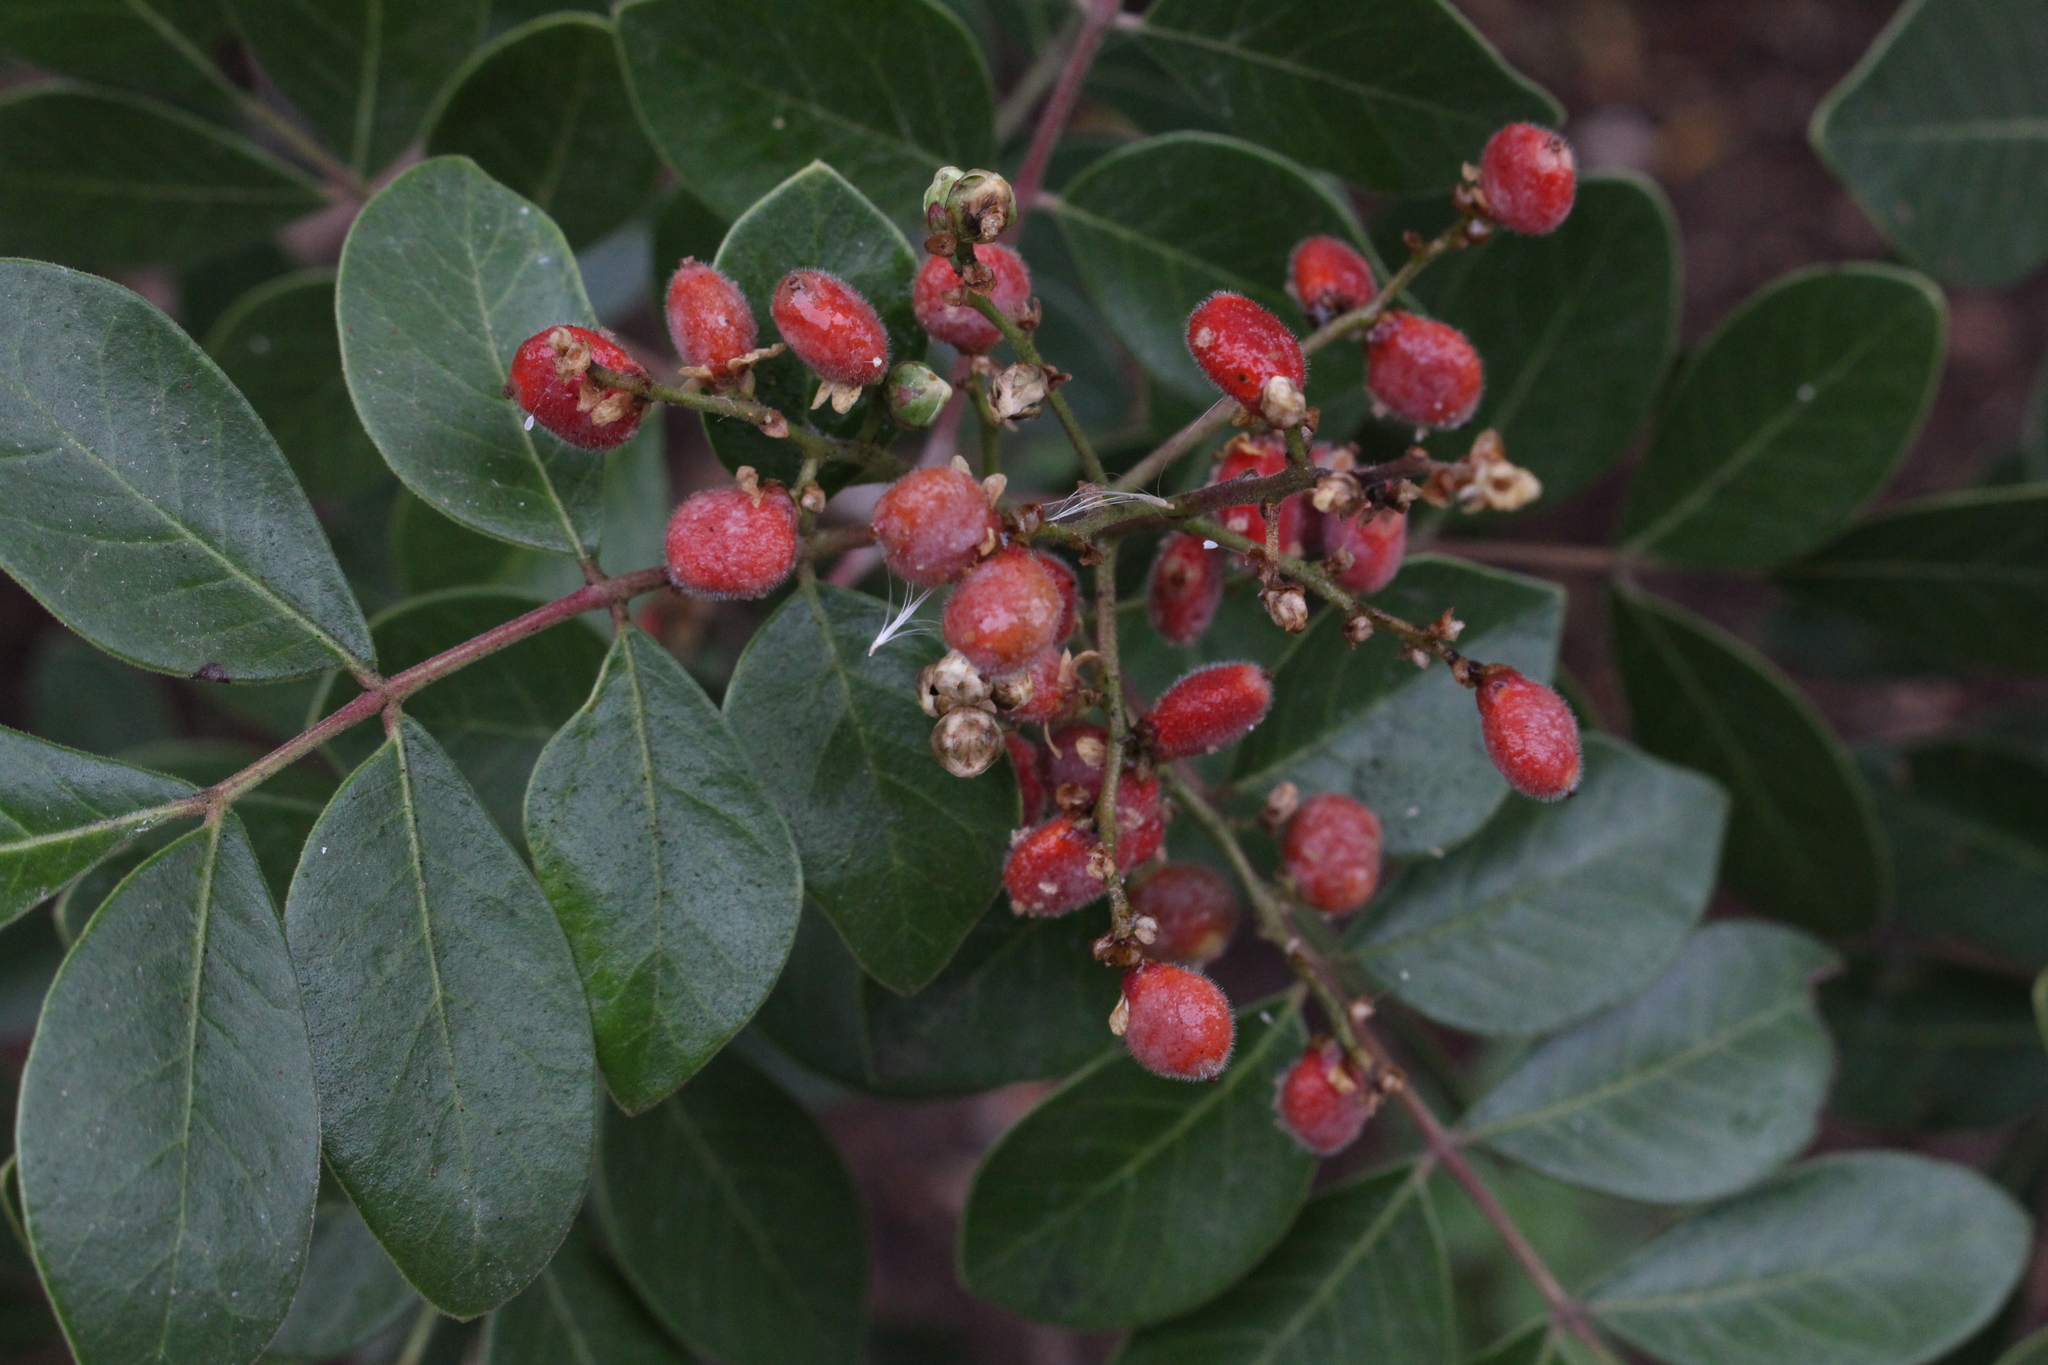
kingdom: Plantae
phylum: Tracheophyta
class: Magnoliopsida
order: Sapindales
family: Anacardiaceae
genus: Rhus
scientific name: Rhus virens
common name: Evergreen sumac
